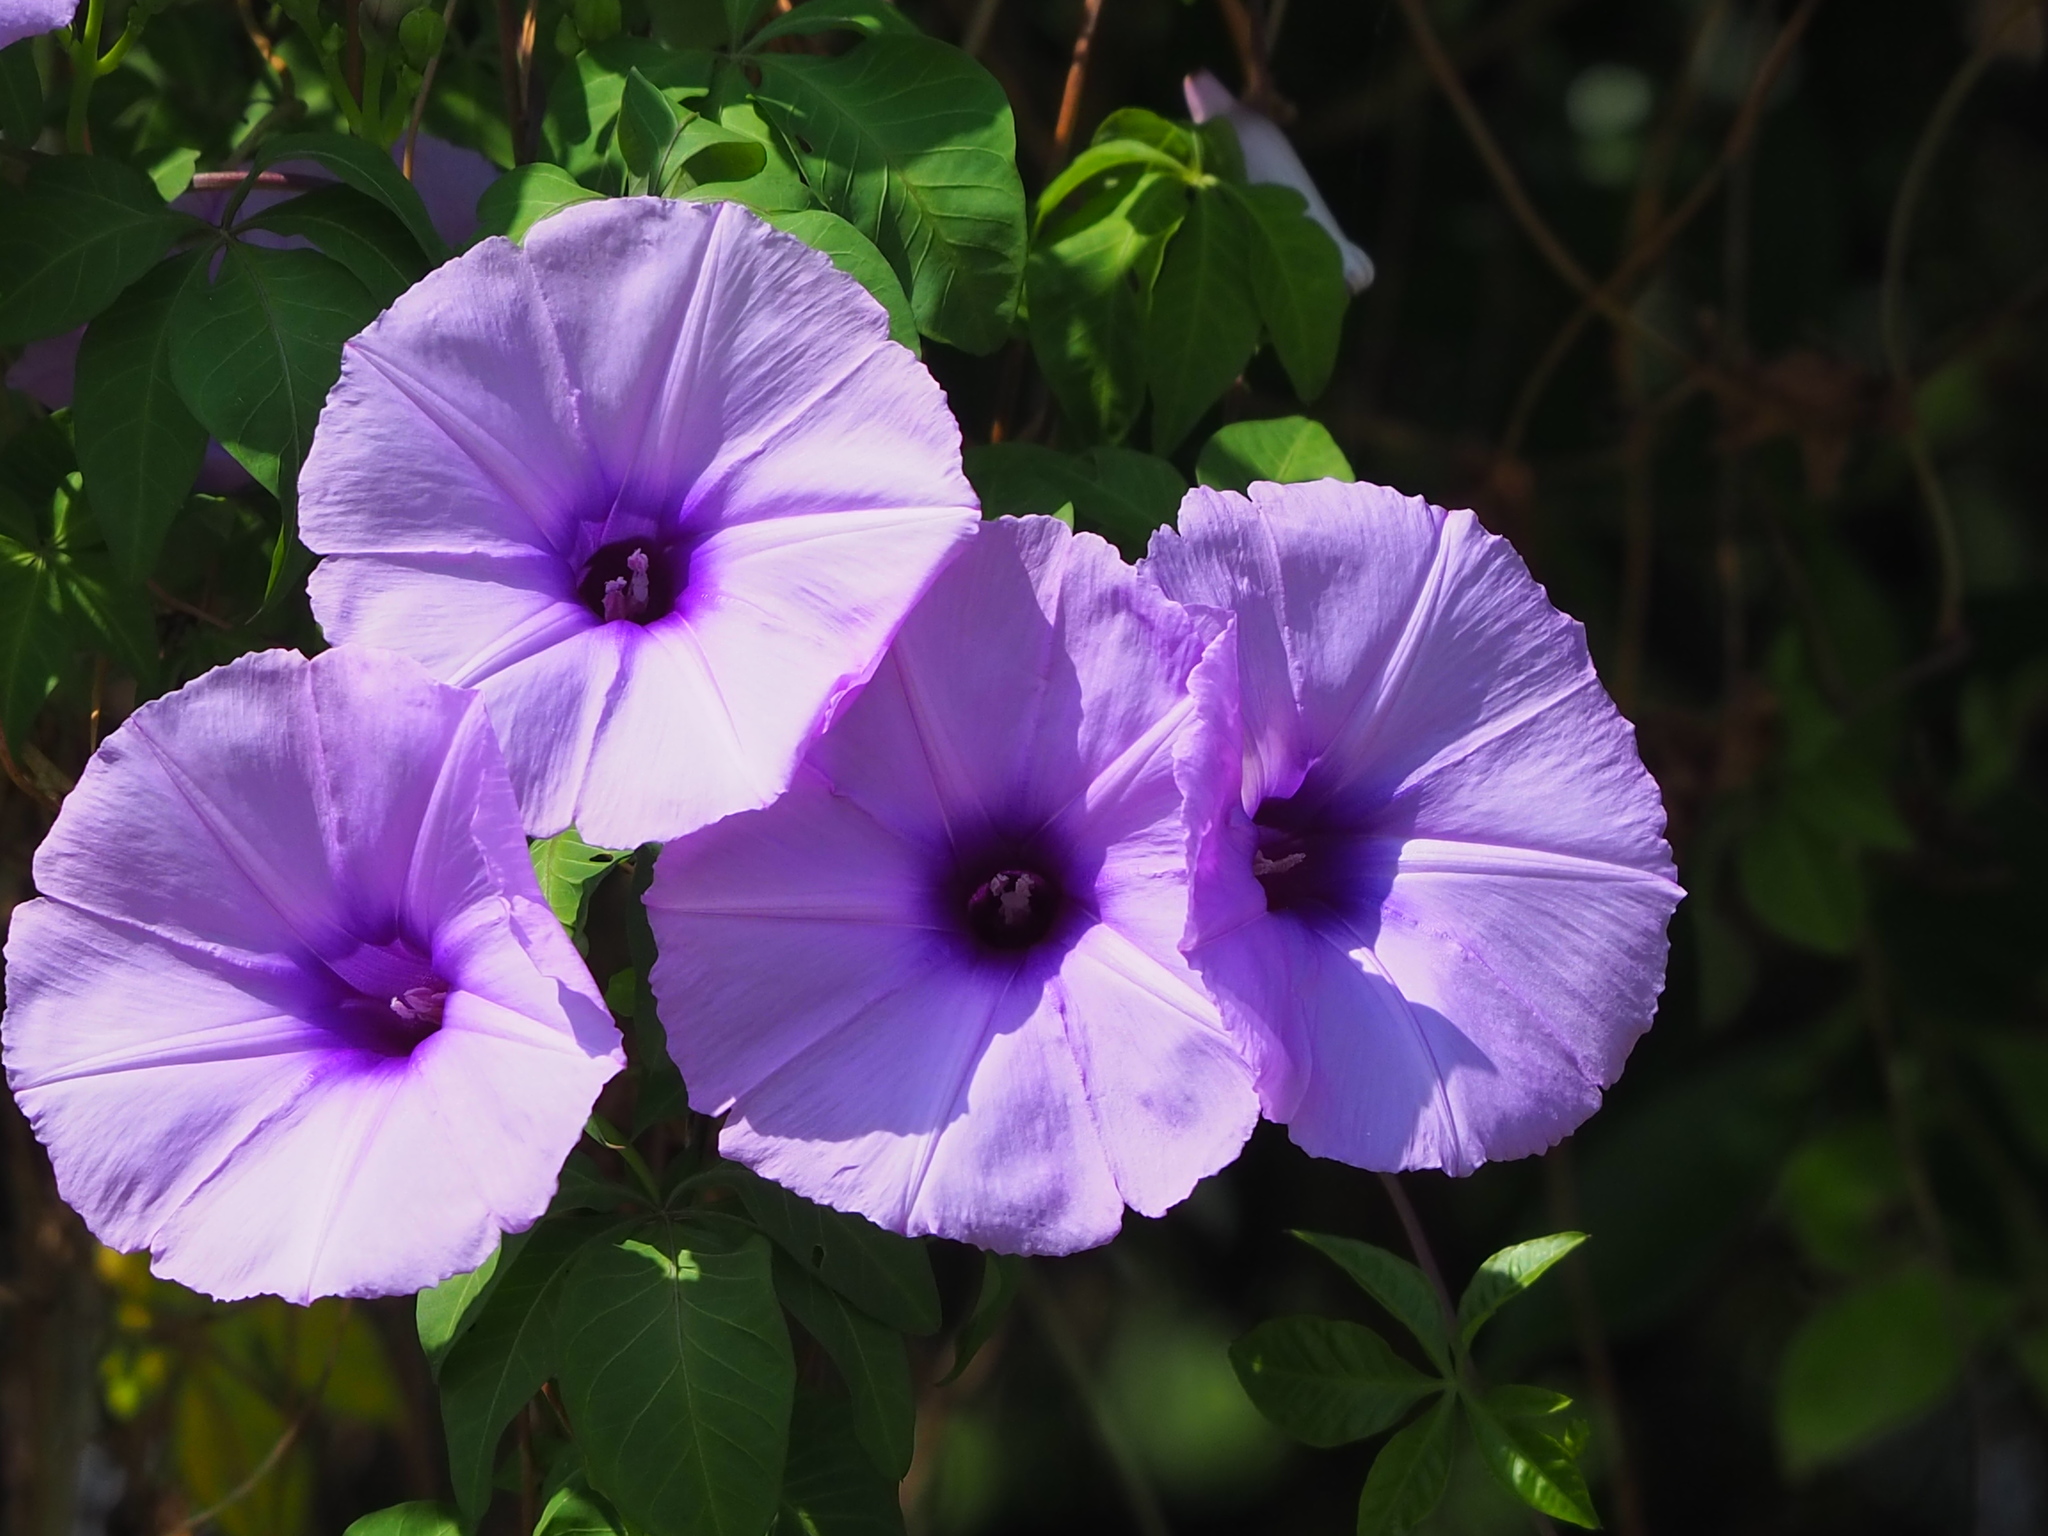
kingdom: Plantae
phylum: Tracheophyta
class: Magnoliopsida
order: Solanales
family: Convolvulaceae
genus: Ipomoea
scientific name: Ipomoea cairica
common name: Mile a minute vine
